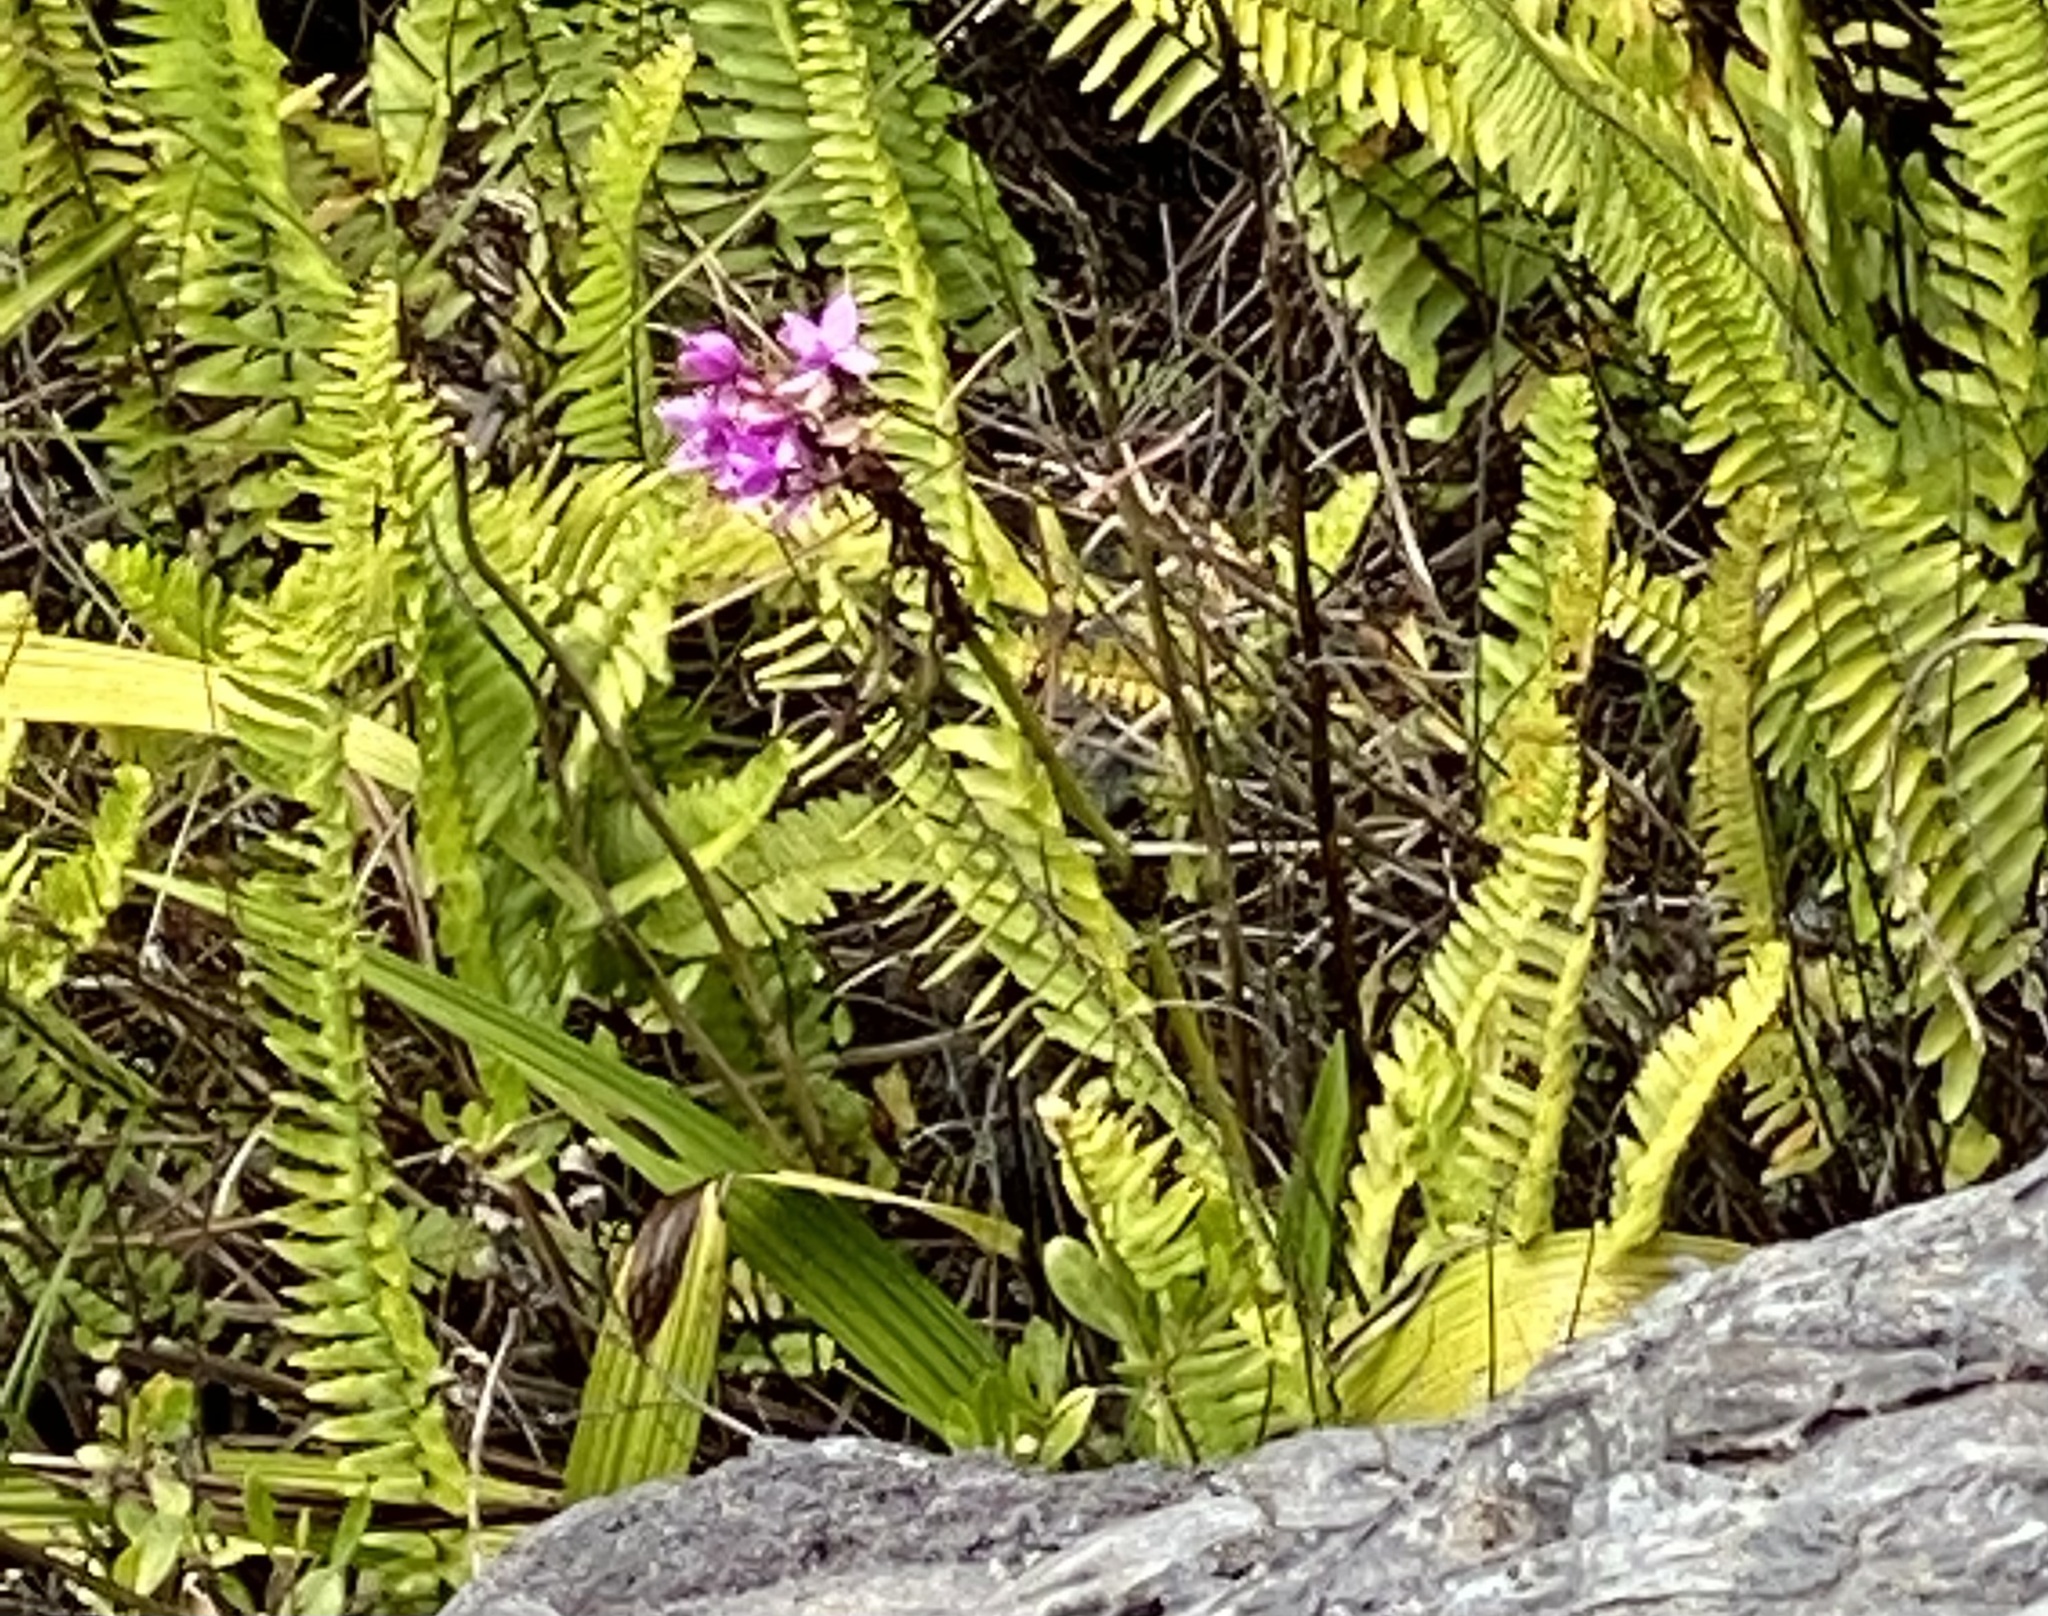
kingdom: Plantae
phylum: Tracheophyta
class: Liliopsida
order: Asparagales
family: Orchidaceae
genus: Spathoglottis
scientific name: Spathoglottis plicata
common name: Philippine ground orchid
